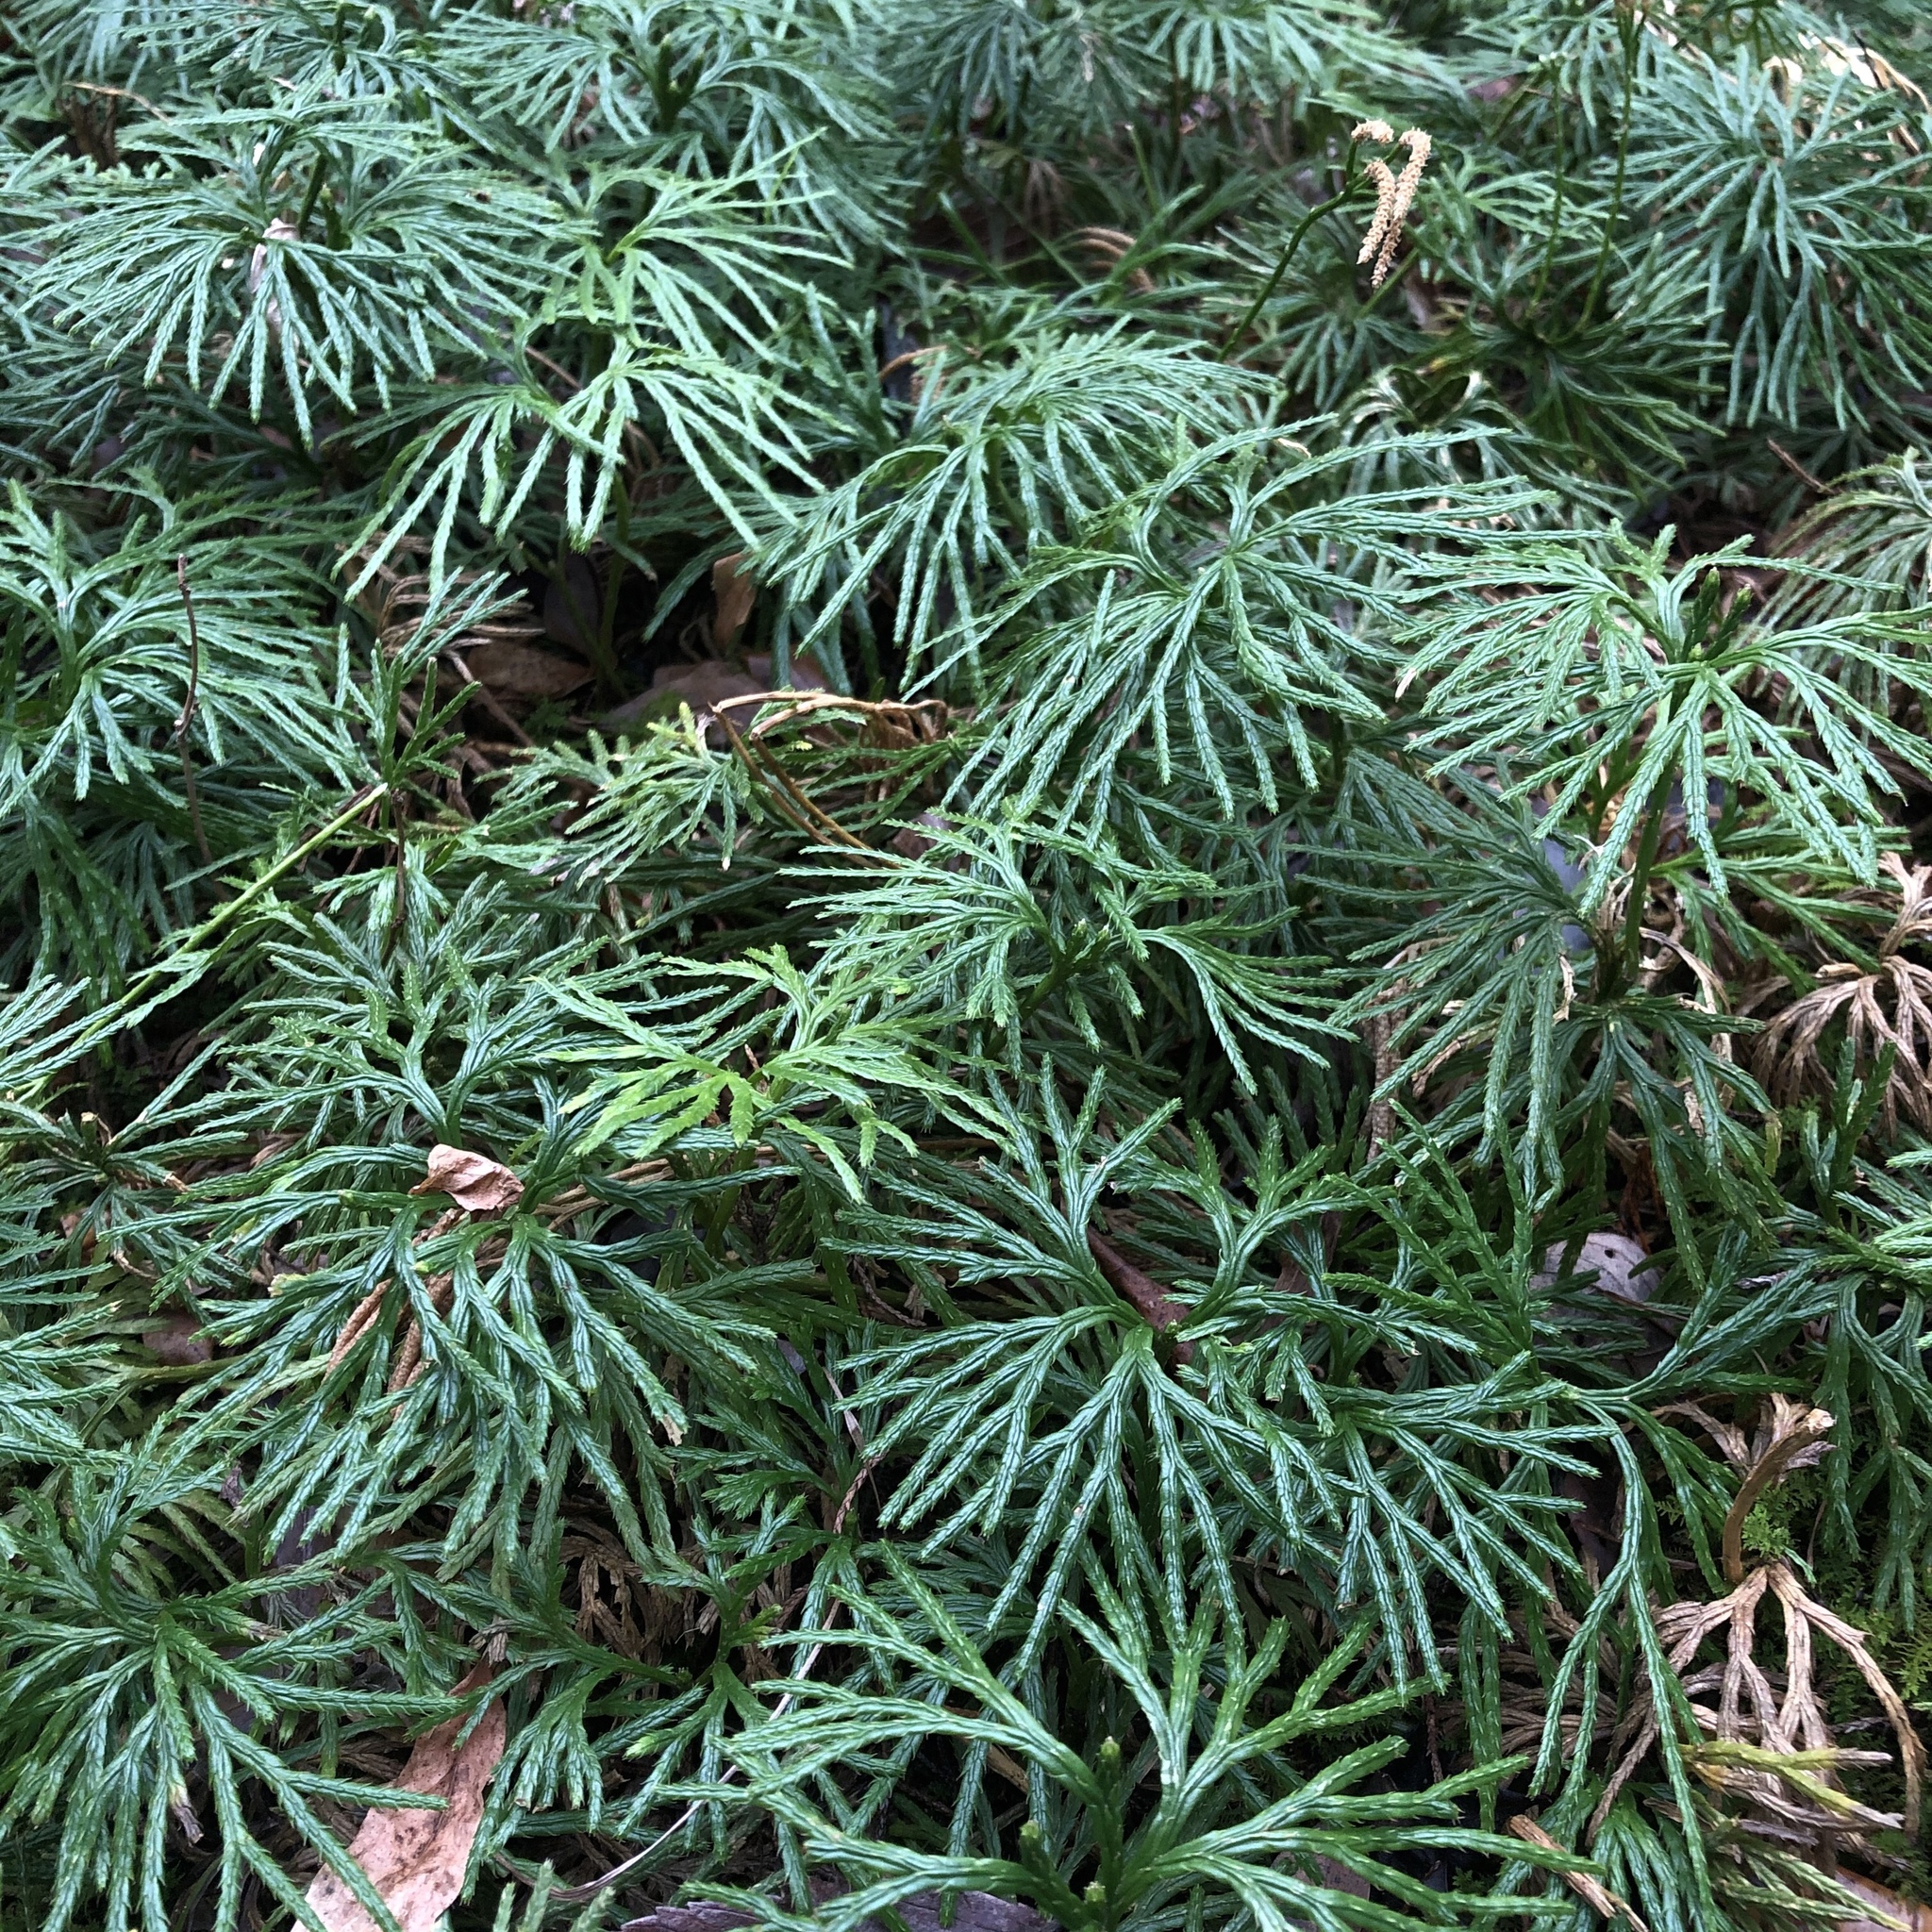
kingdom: Plantae
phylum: Tracheophyta
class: Lycopodiopsida
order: Lycopodiales
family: Lycopodiaceae
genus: Diphasiastrum
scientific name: Diphasiastrum digitatum
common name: Southern running-pine
